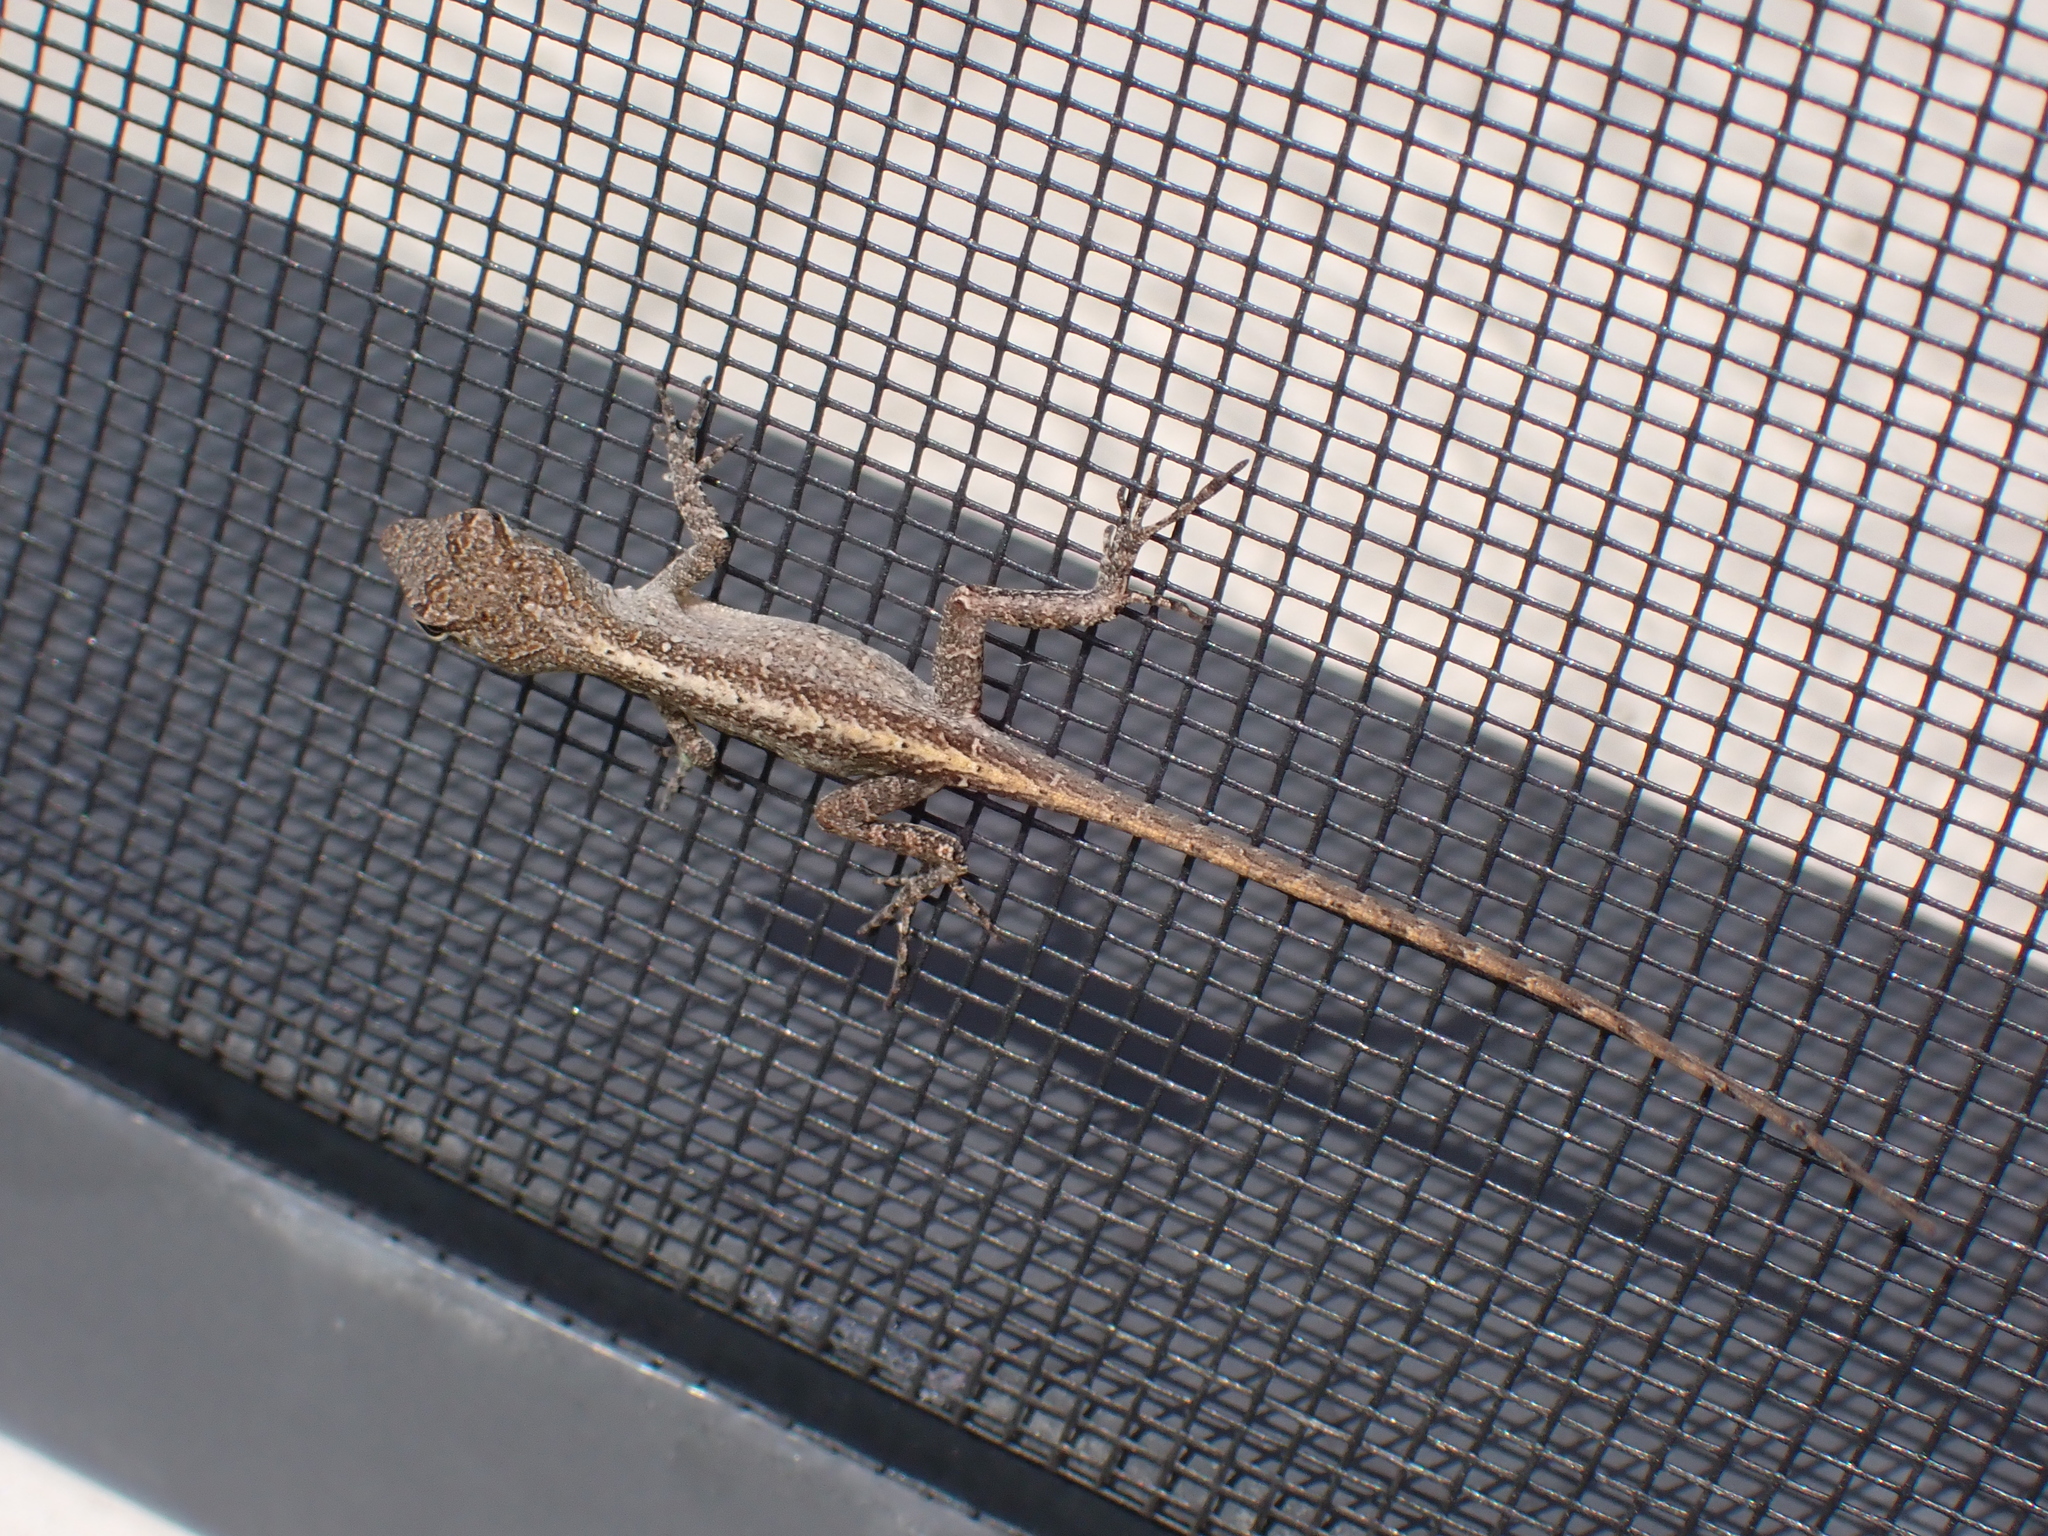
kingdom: Animalia
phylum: Chordata
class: Squamata
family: Dactyloidae
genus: Anolis
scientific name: Anolis sagrei
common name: Brown anole
